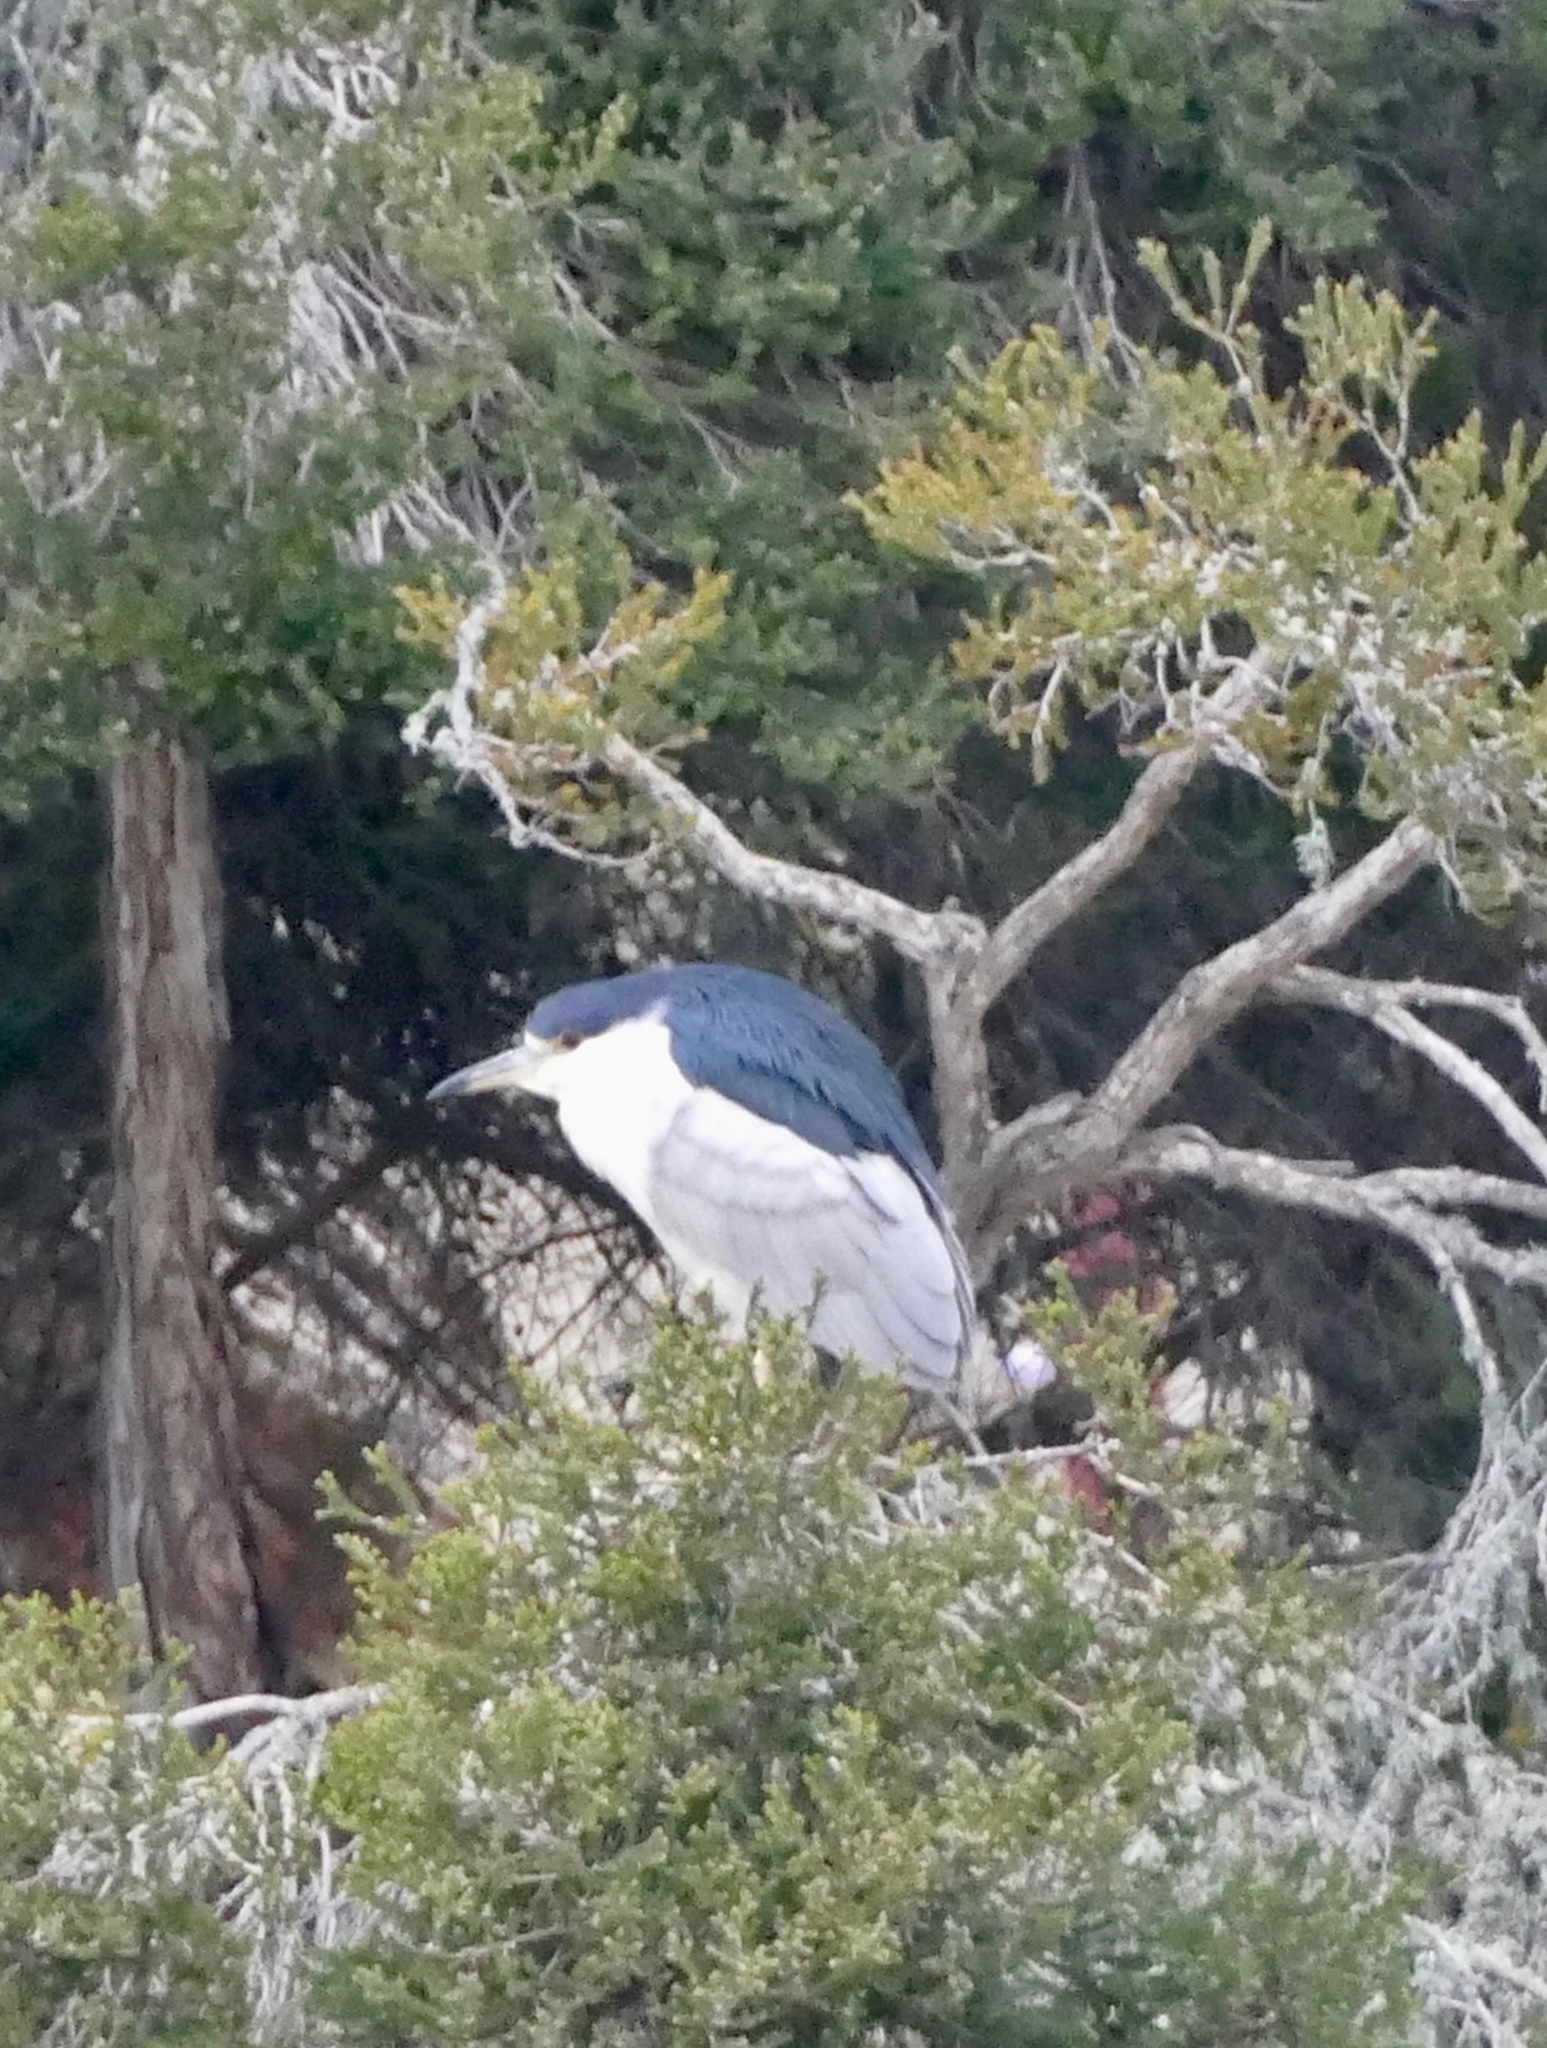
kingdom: Animalia
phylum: Chordata
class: Aves
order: Pelecaniformes
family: Ardeidae
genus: Nycticorax
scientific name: Nycticorax nycticorax
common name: Black-crowned night heron
